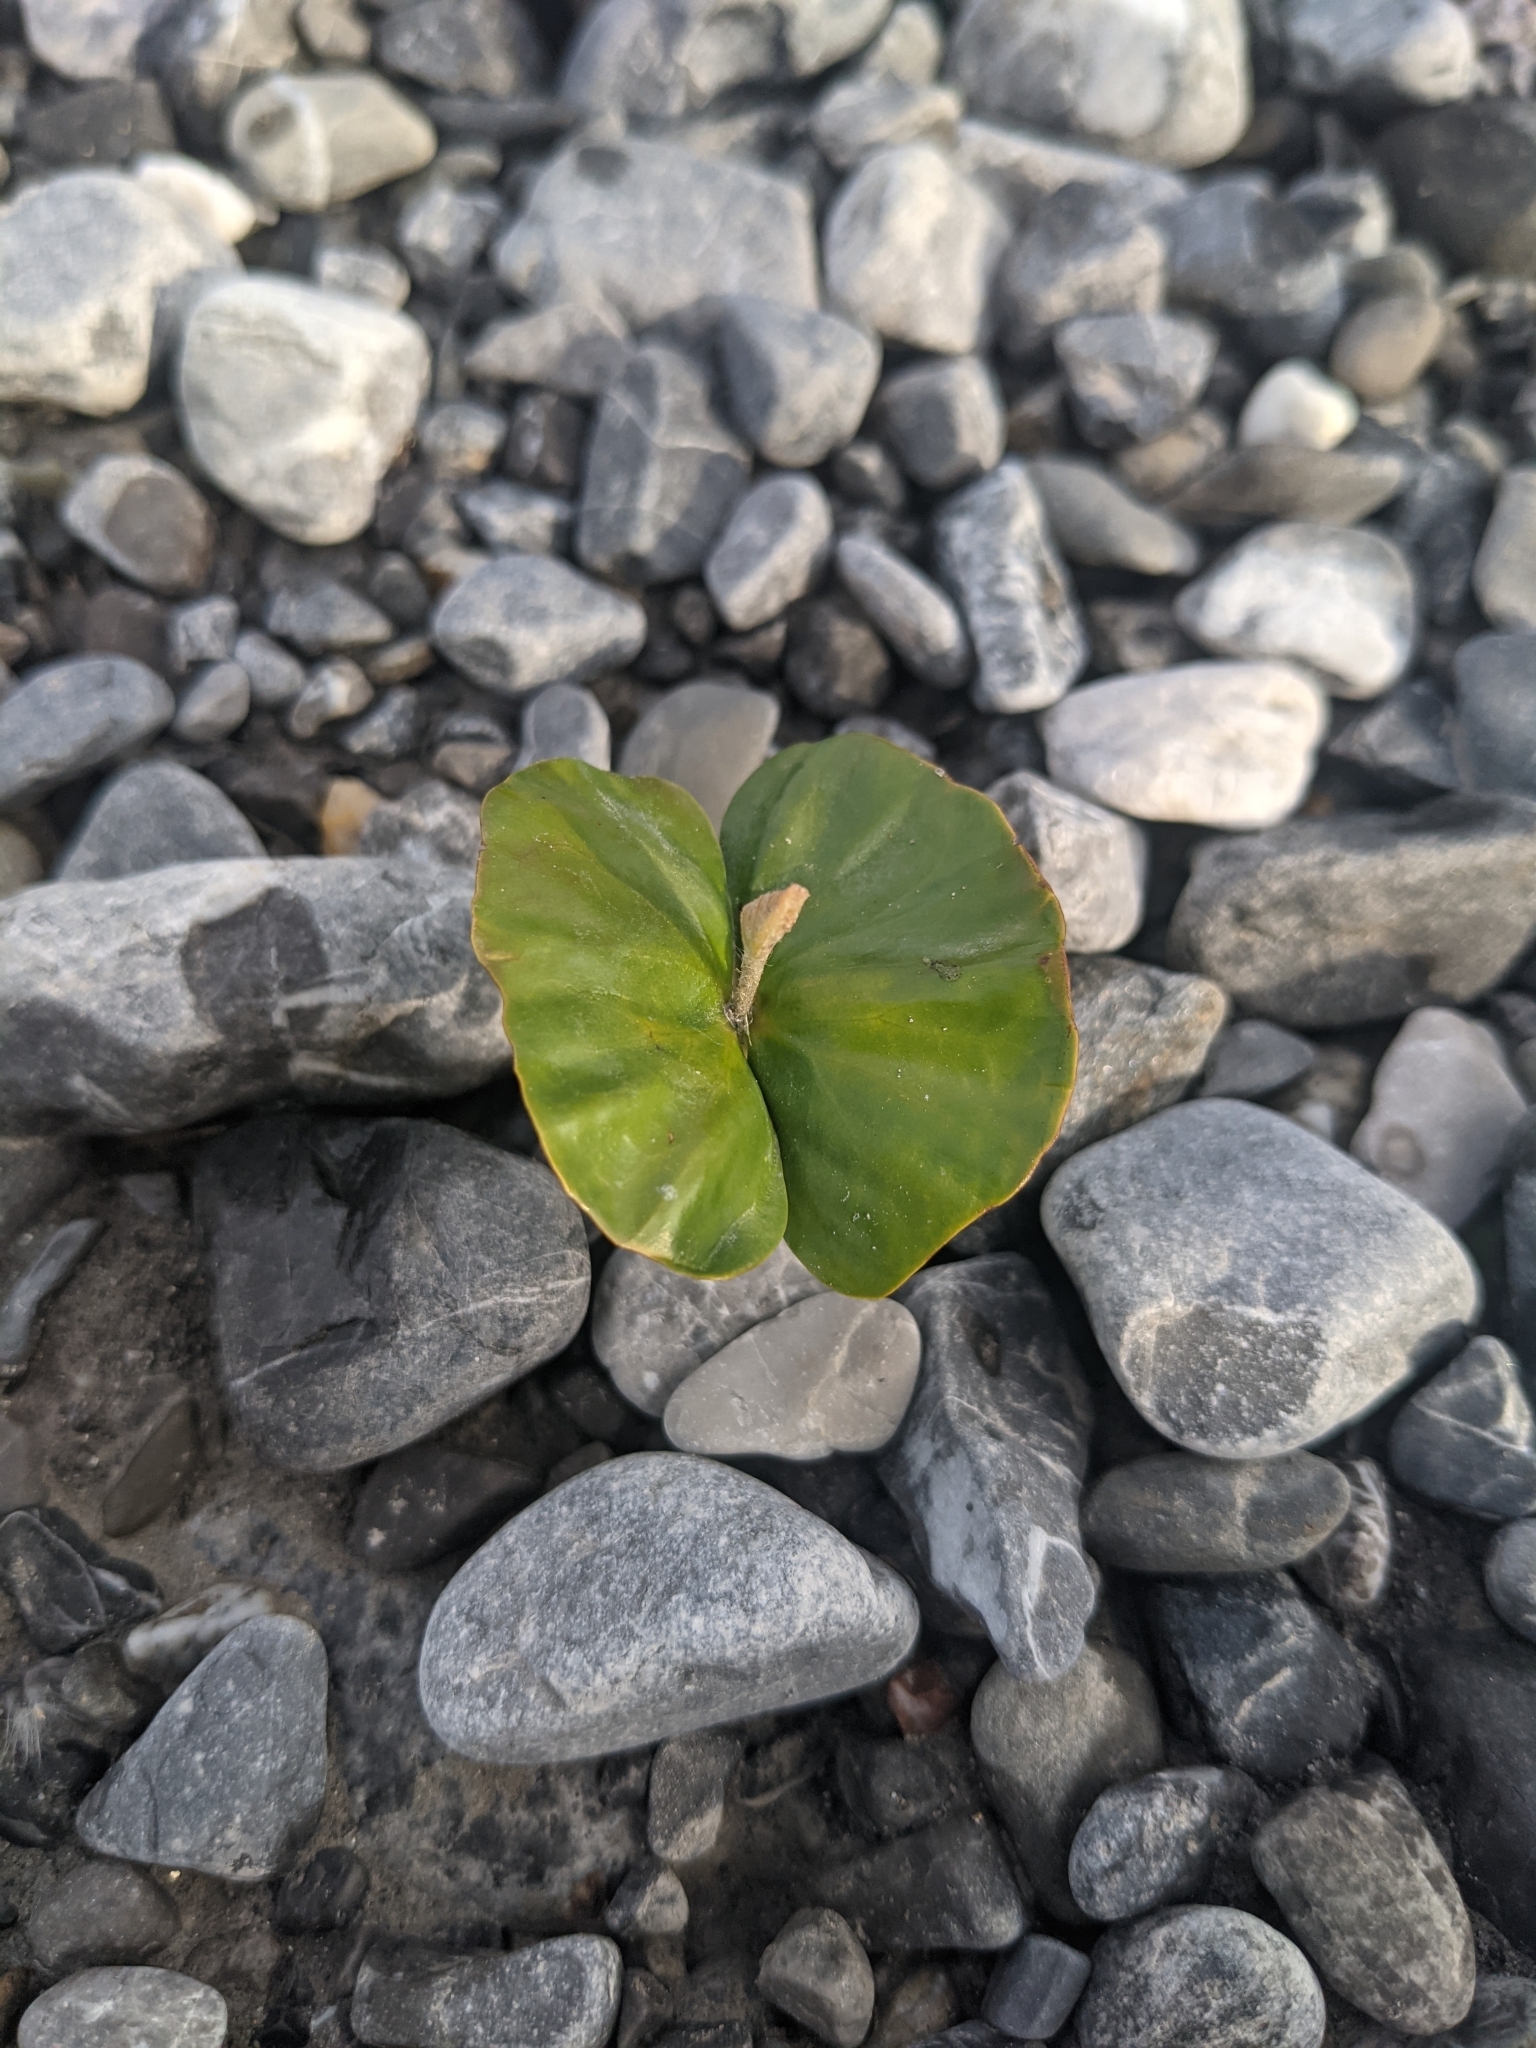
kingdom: Plantae
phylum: Tracheophyta
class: Magnoliopsida
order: Fagales
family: Fagaceae
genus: Fagus
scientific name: Fagus sylvatica
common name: Beech
